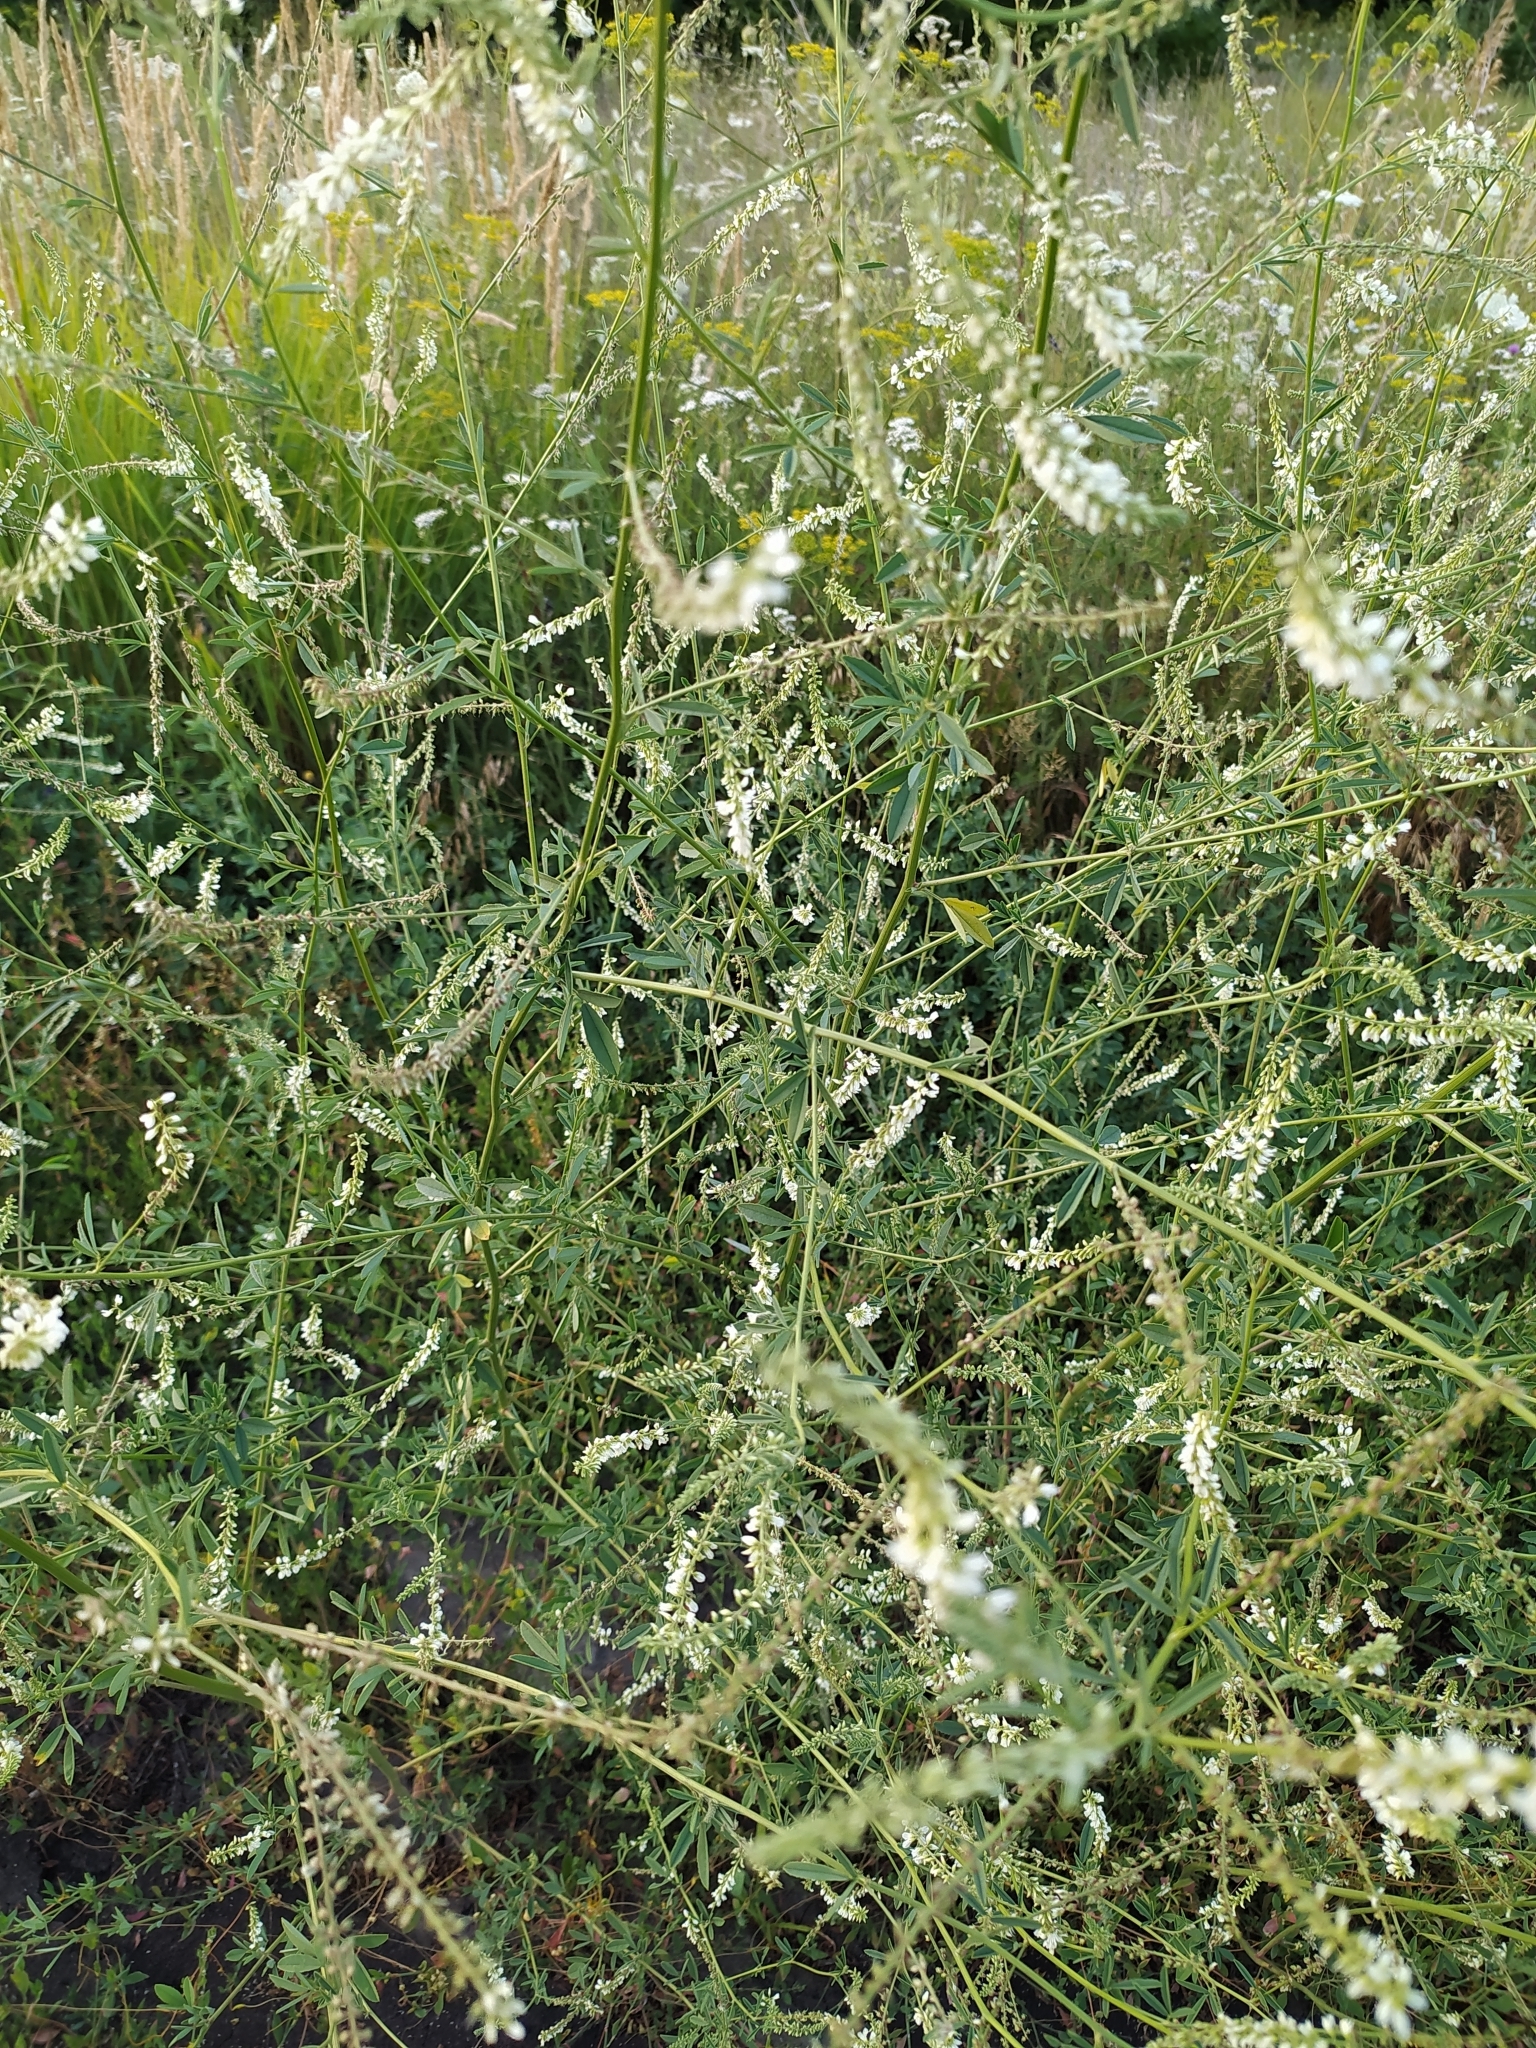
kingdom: Plantae
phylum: Tracheophyta
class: Magnoliopsida
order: Fabales
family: Fabaceae
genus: Melilotus
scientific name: Melilotus albus
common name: White melilot
